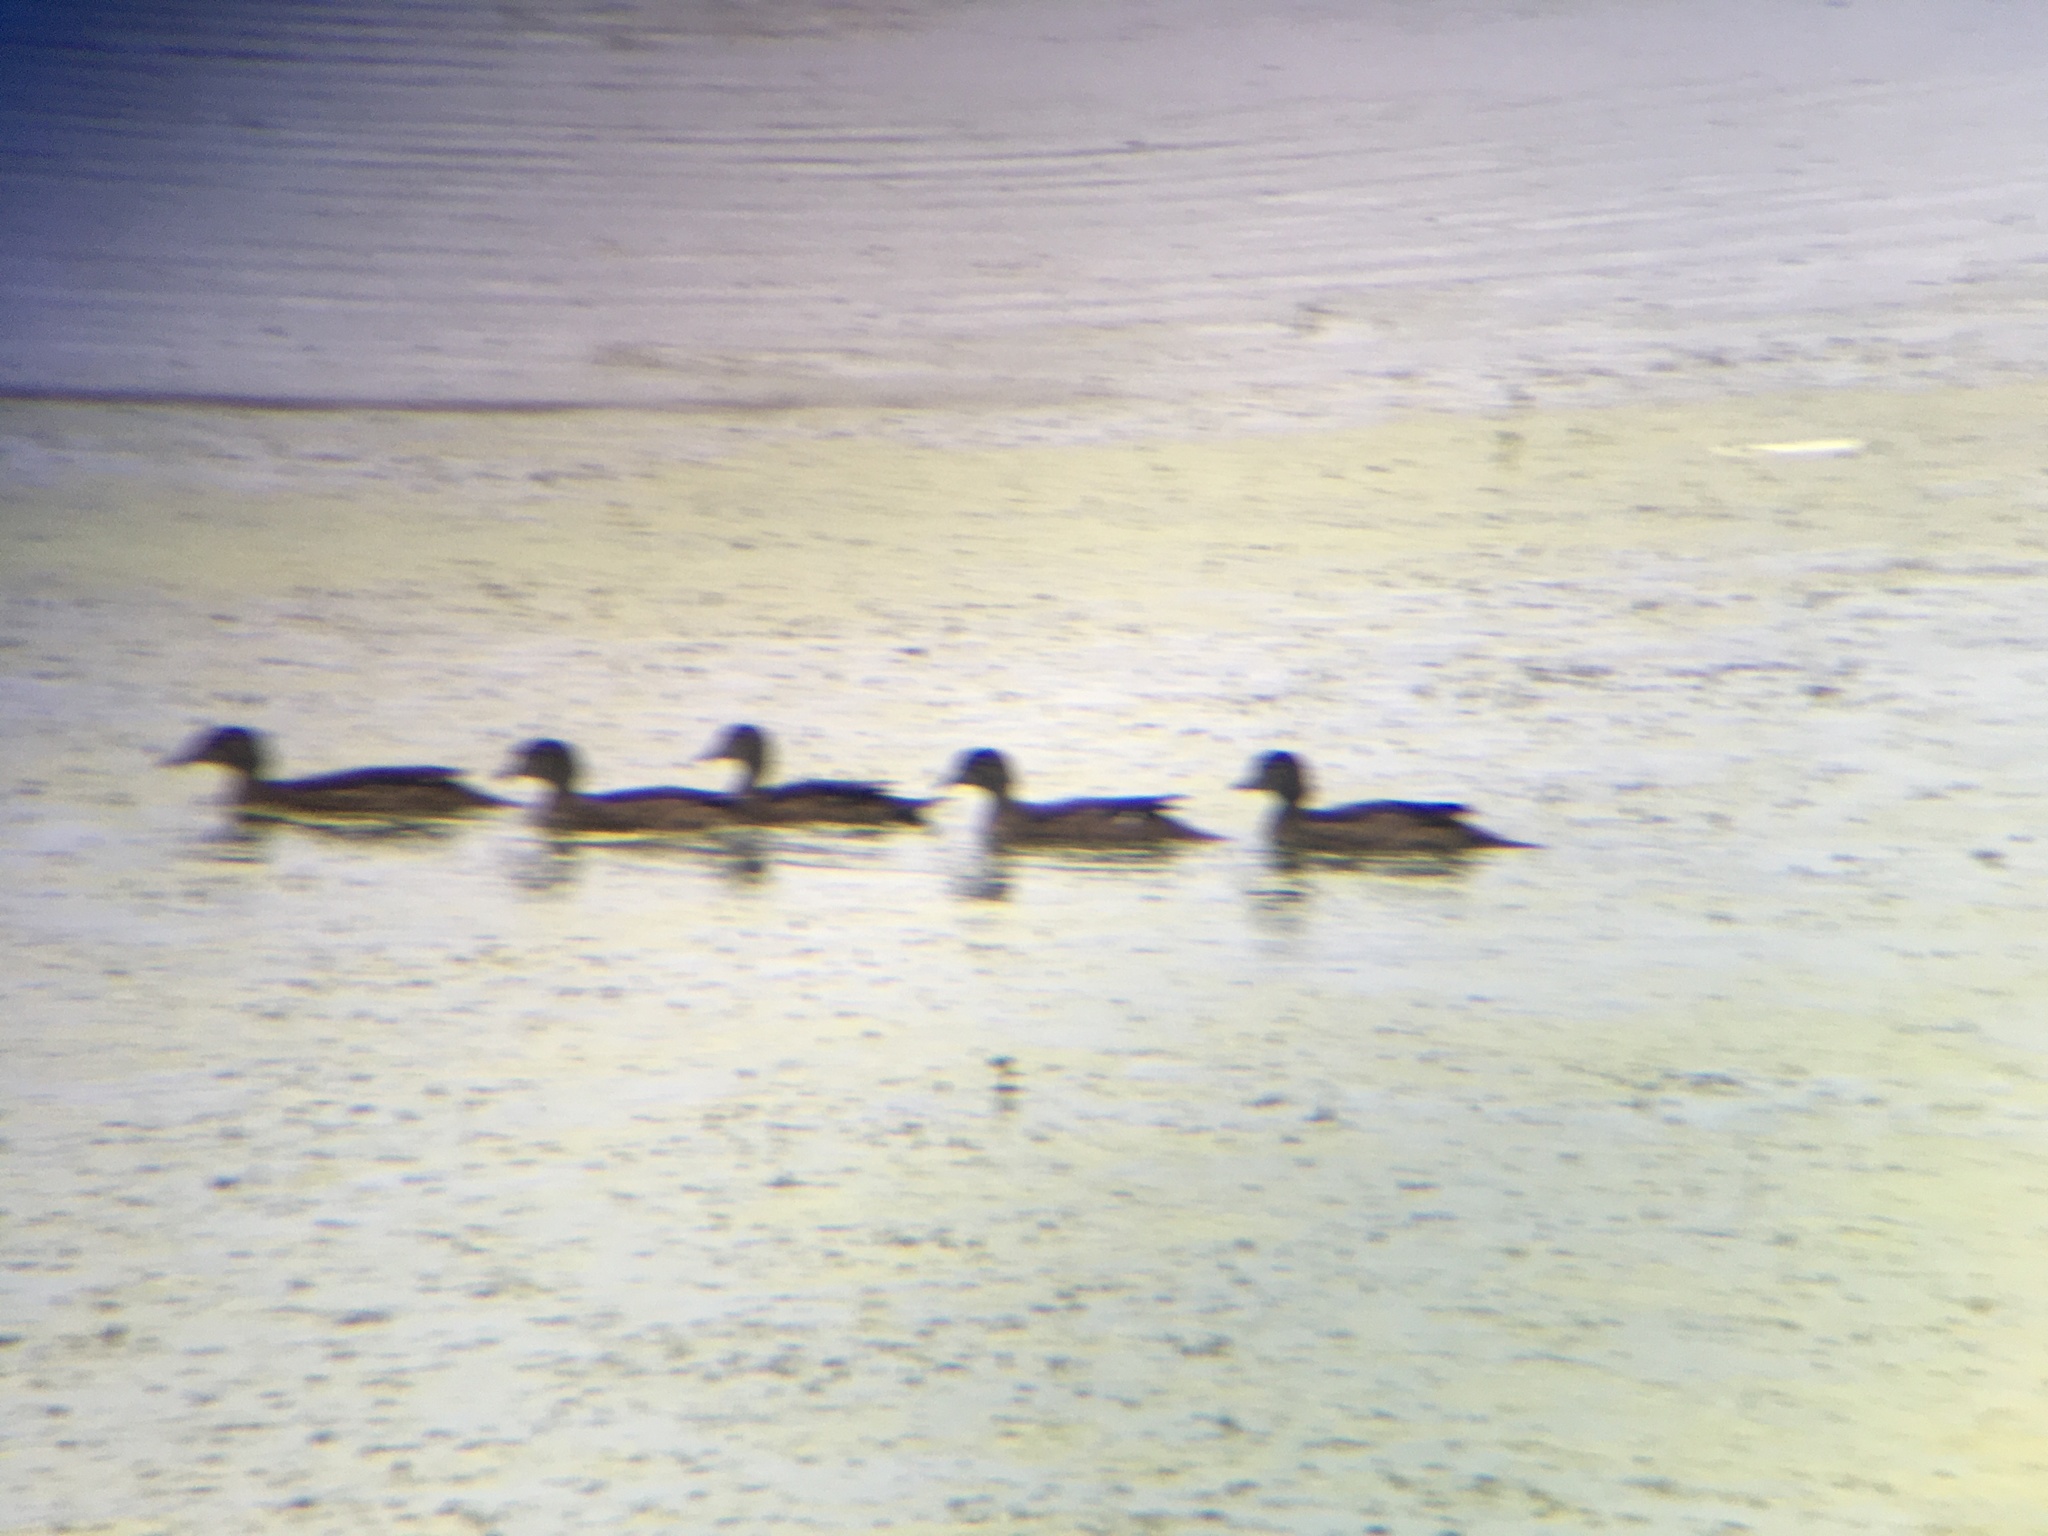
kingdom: Animalia
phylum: Chordata
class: Aves
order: Anseriformes
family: Anatidae
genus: Aix
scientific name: Aix sponsa
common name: Wood duck
